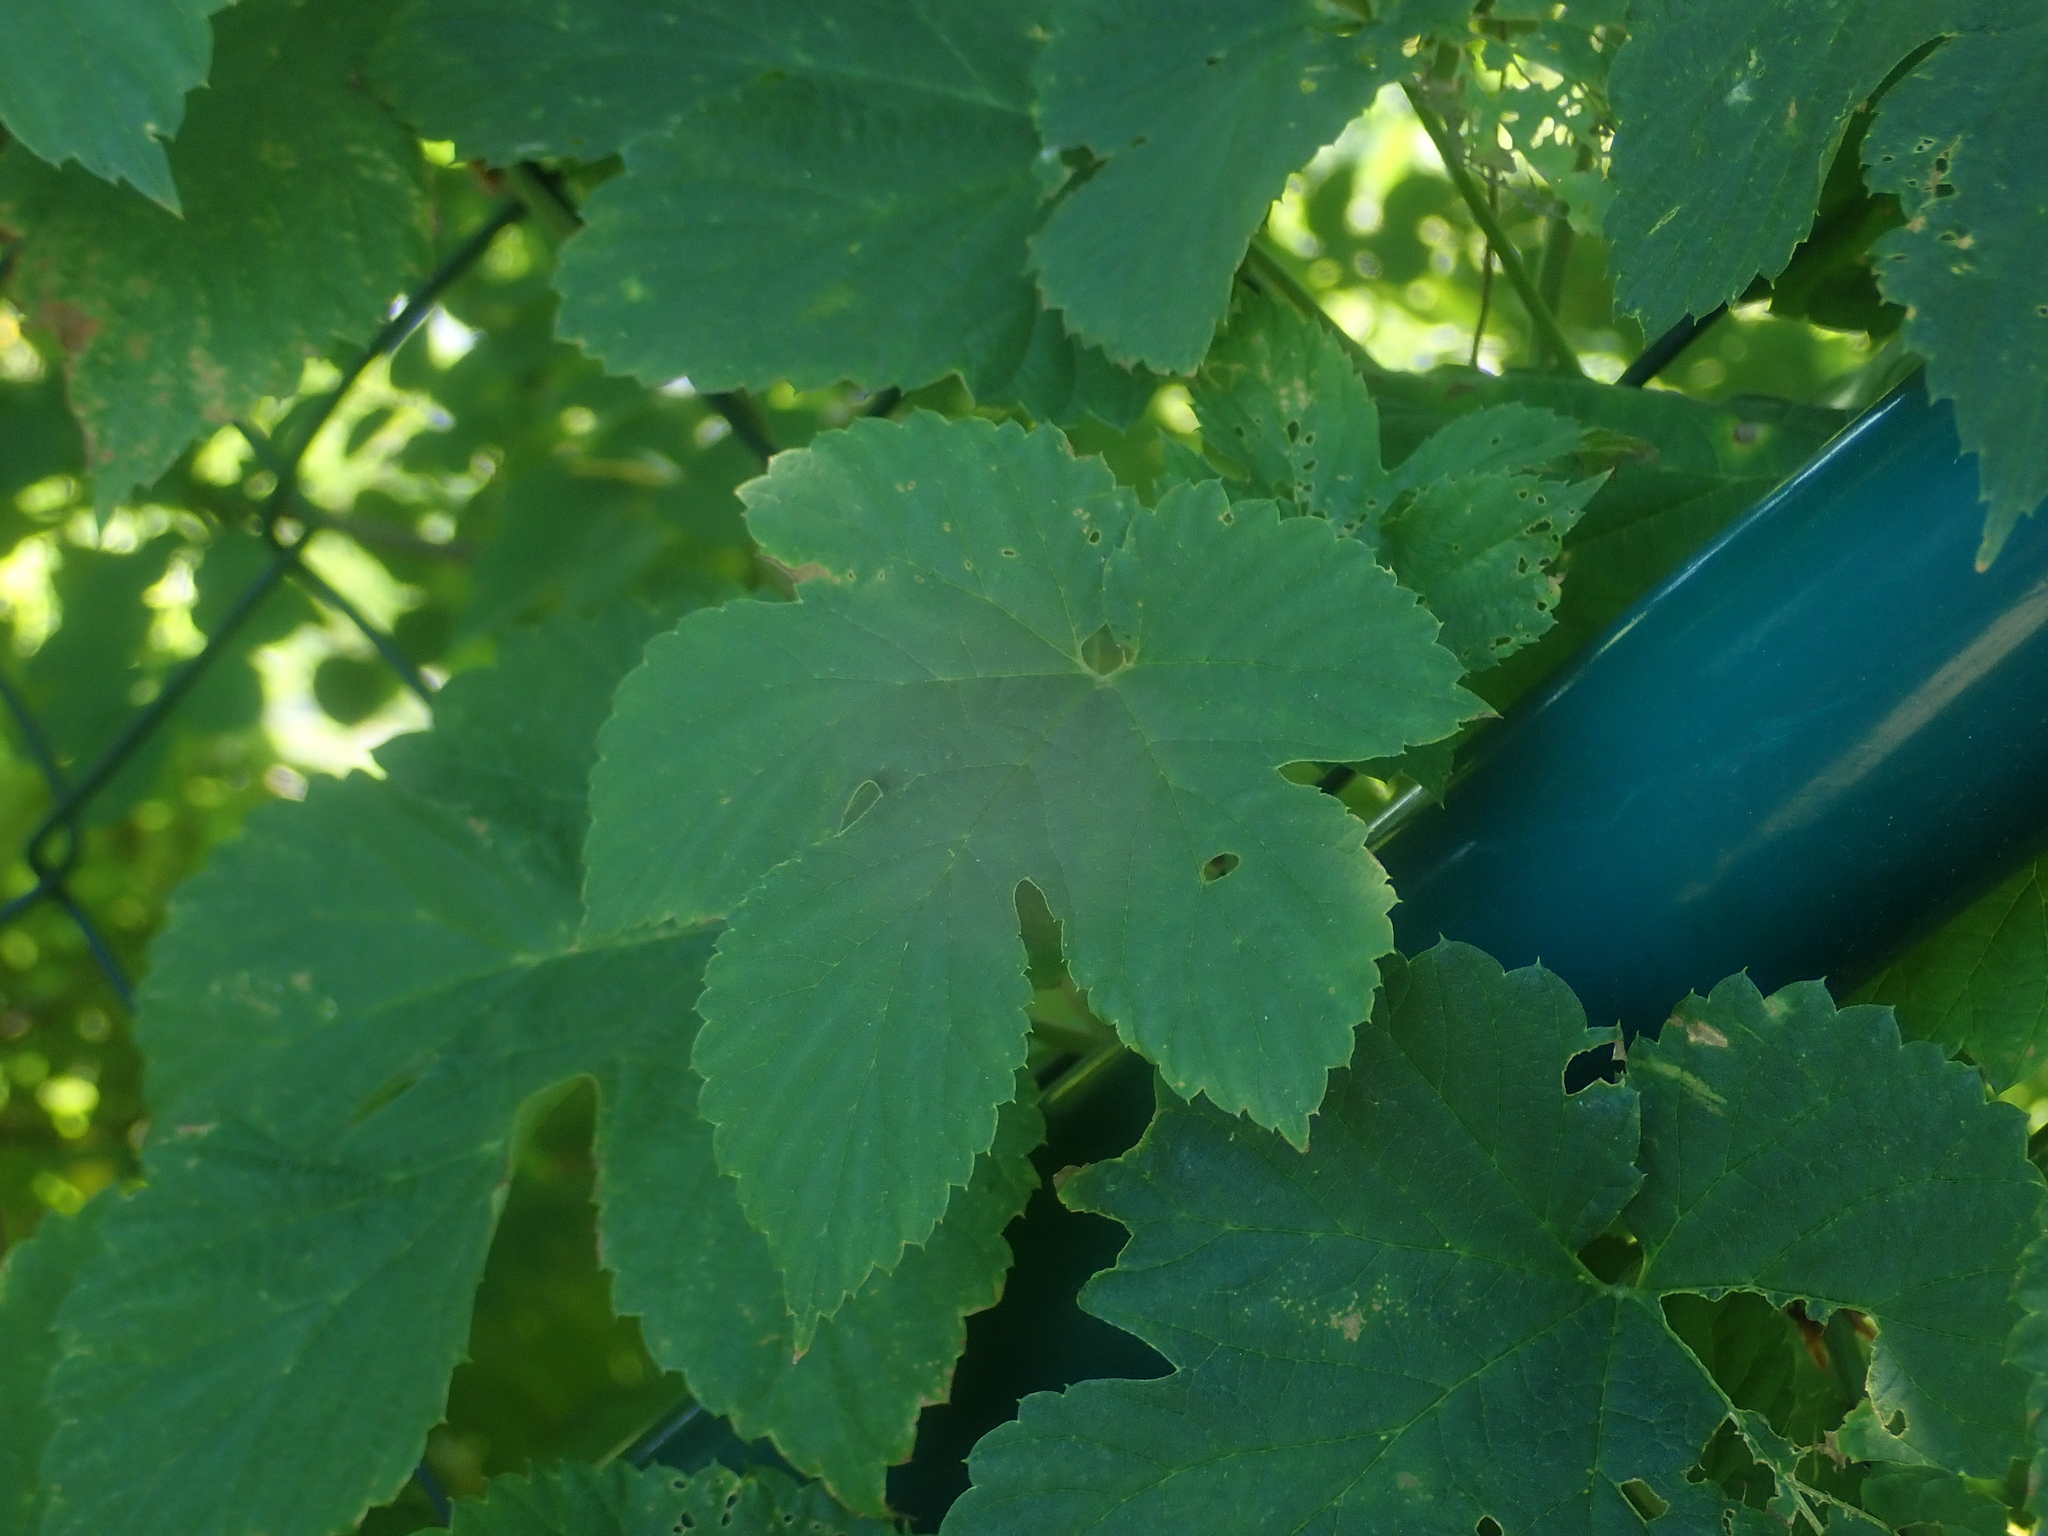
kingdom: Plantae
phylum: Tracheophyta
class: Magnoliopsida
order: Rosales
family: Cannabaceae
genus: Humulus
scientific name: Humulus lupulus
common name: Hop
